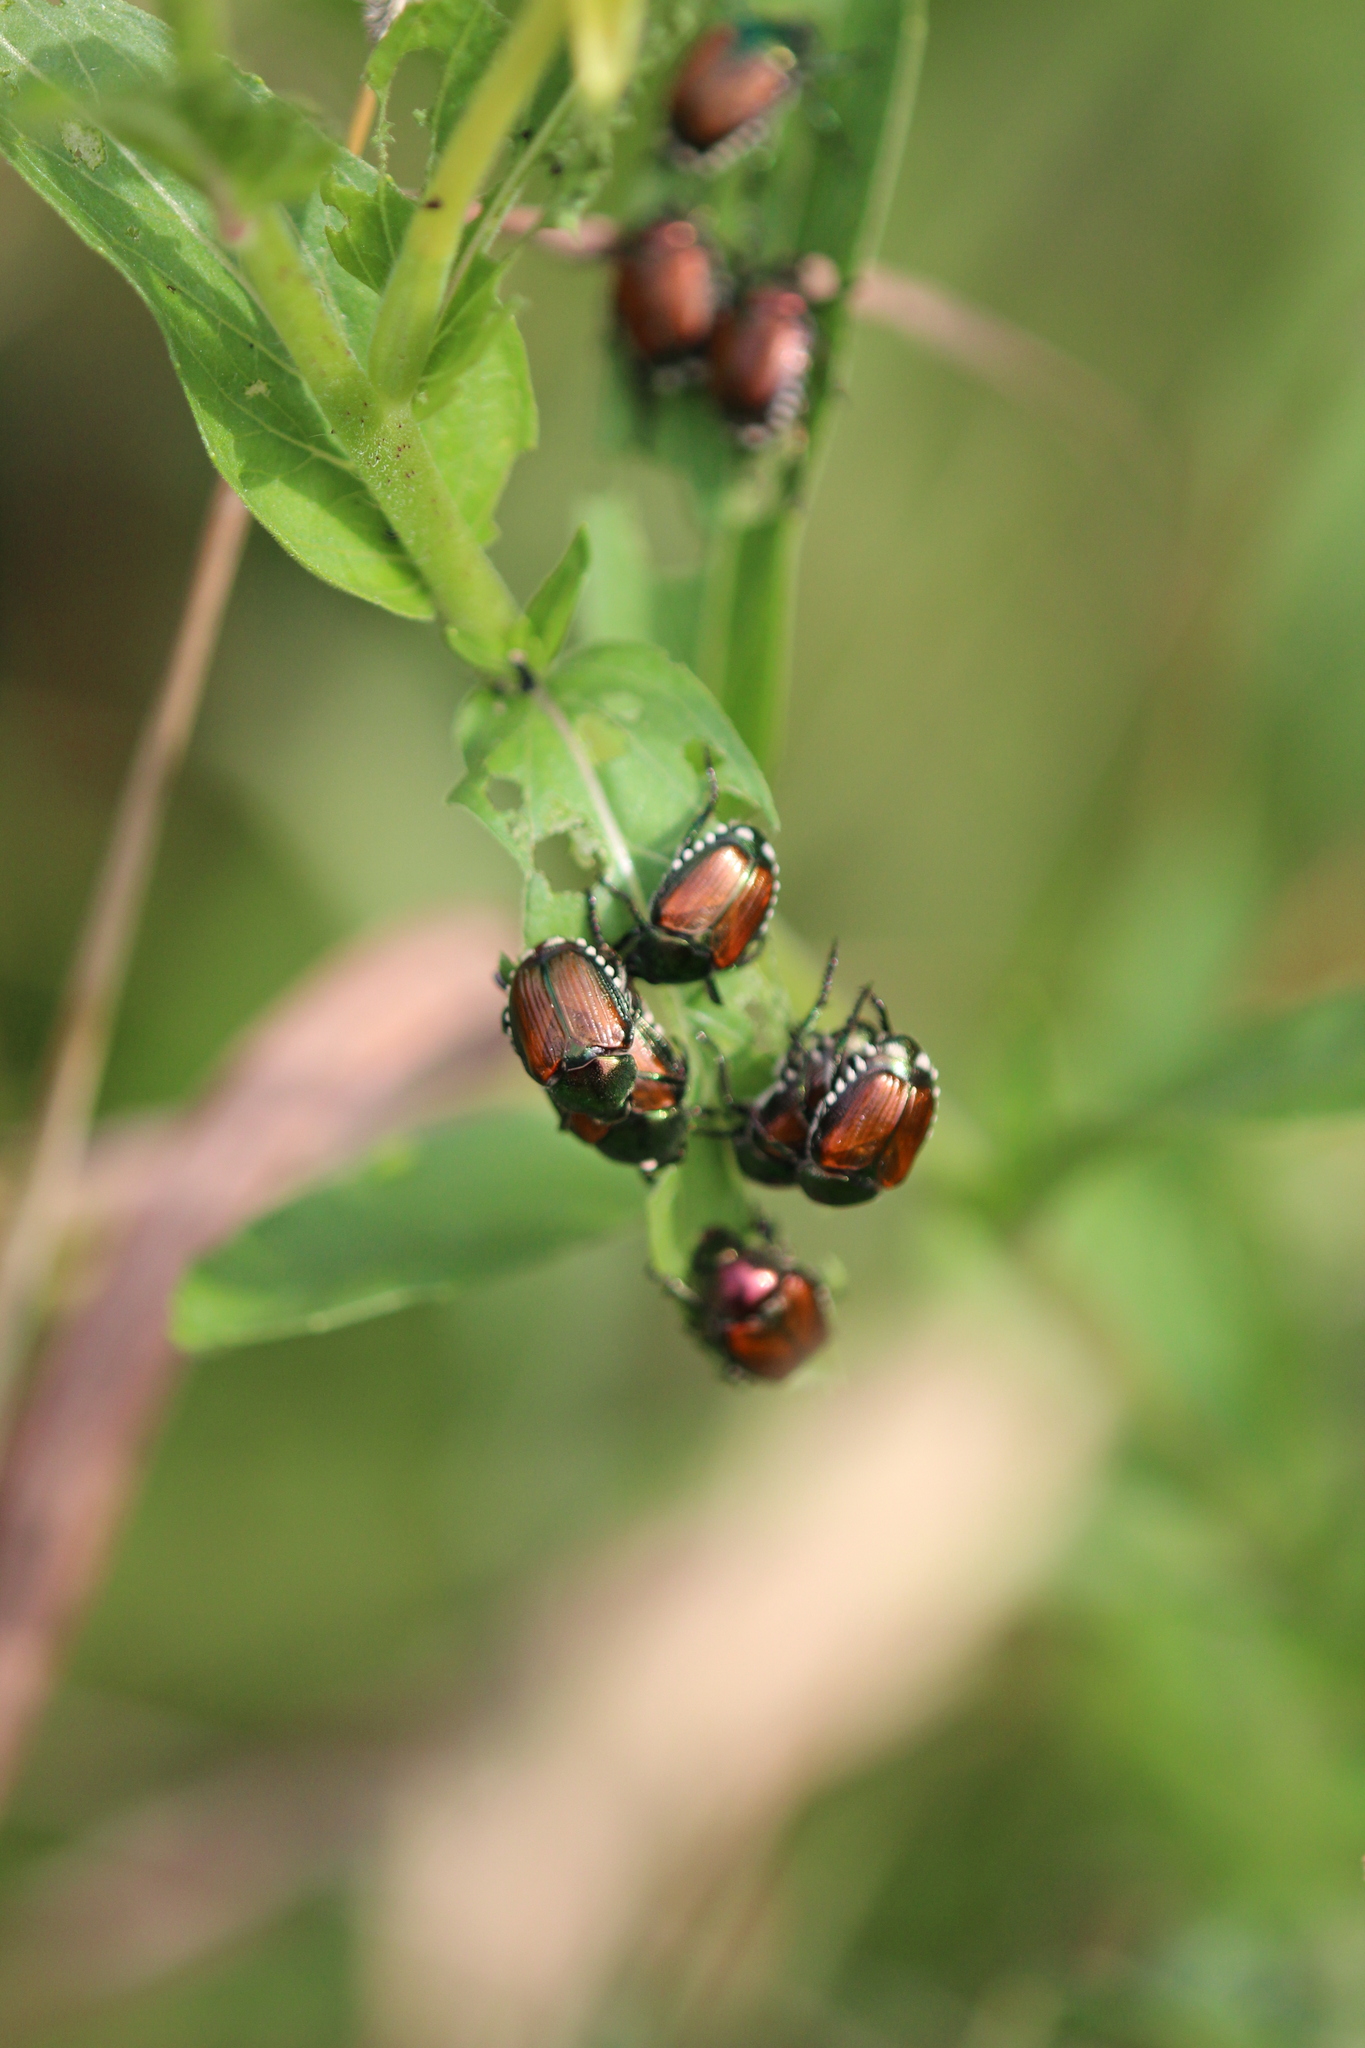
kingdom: Animalia
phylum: Arthropoda
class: Insecta
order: Coleoptera
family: Scarabaeidae
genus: Popillia
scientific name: Popillia japonica
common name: Japanese beetle
